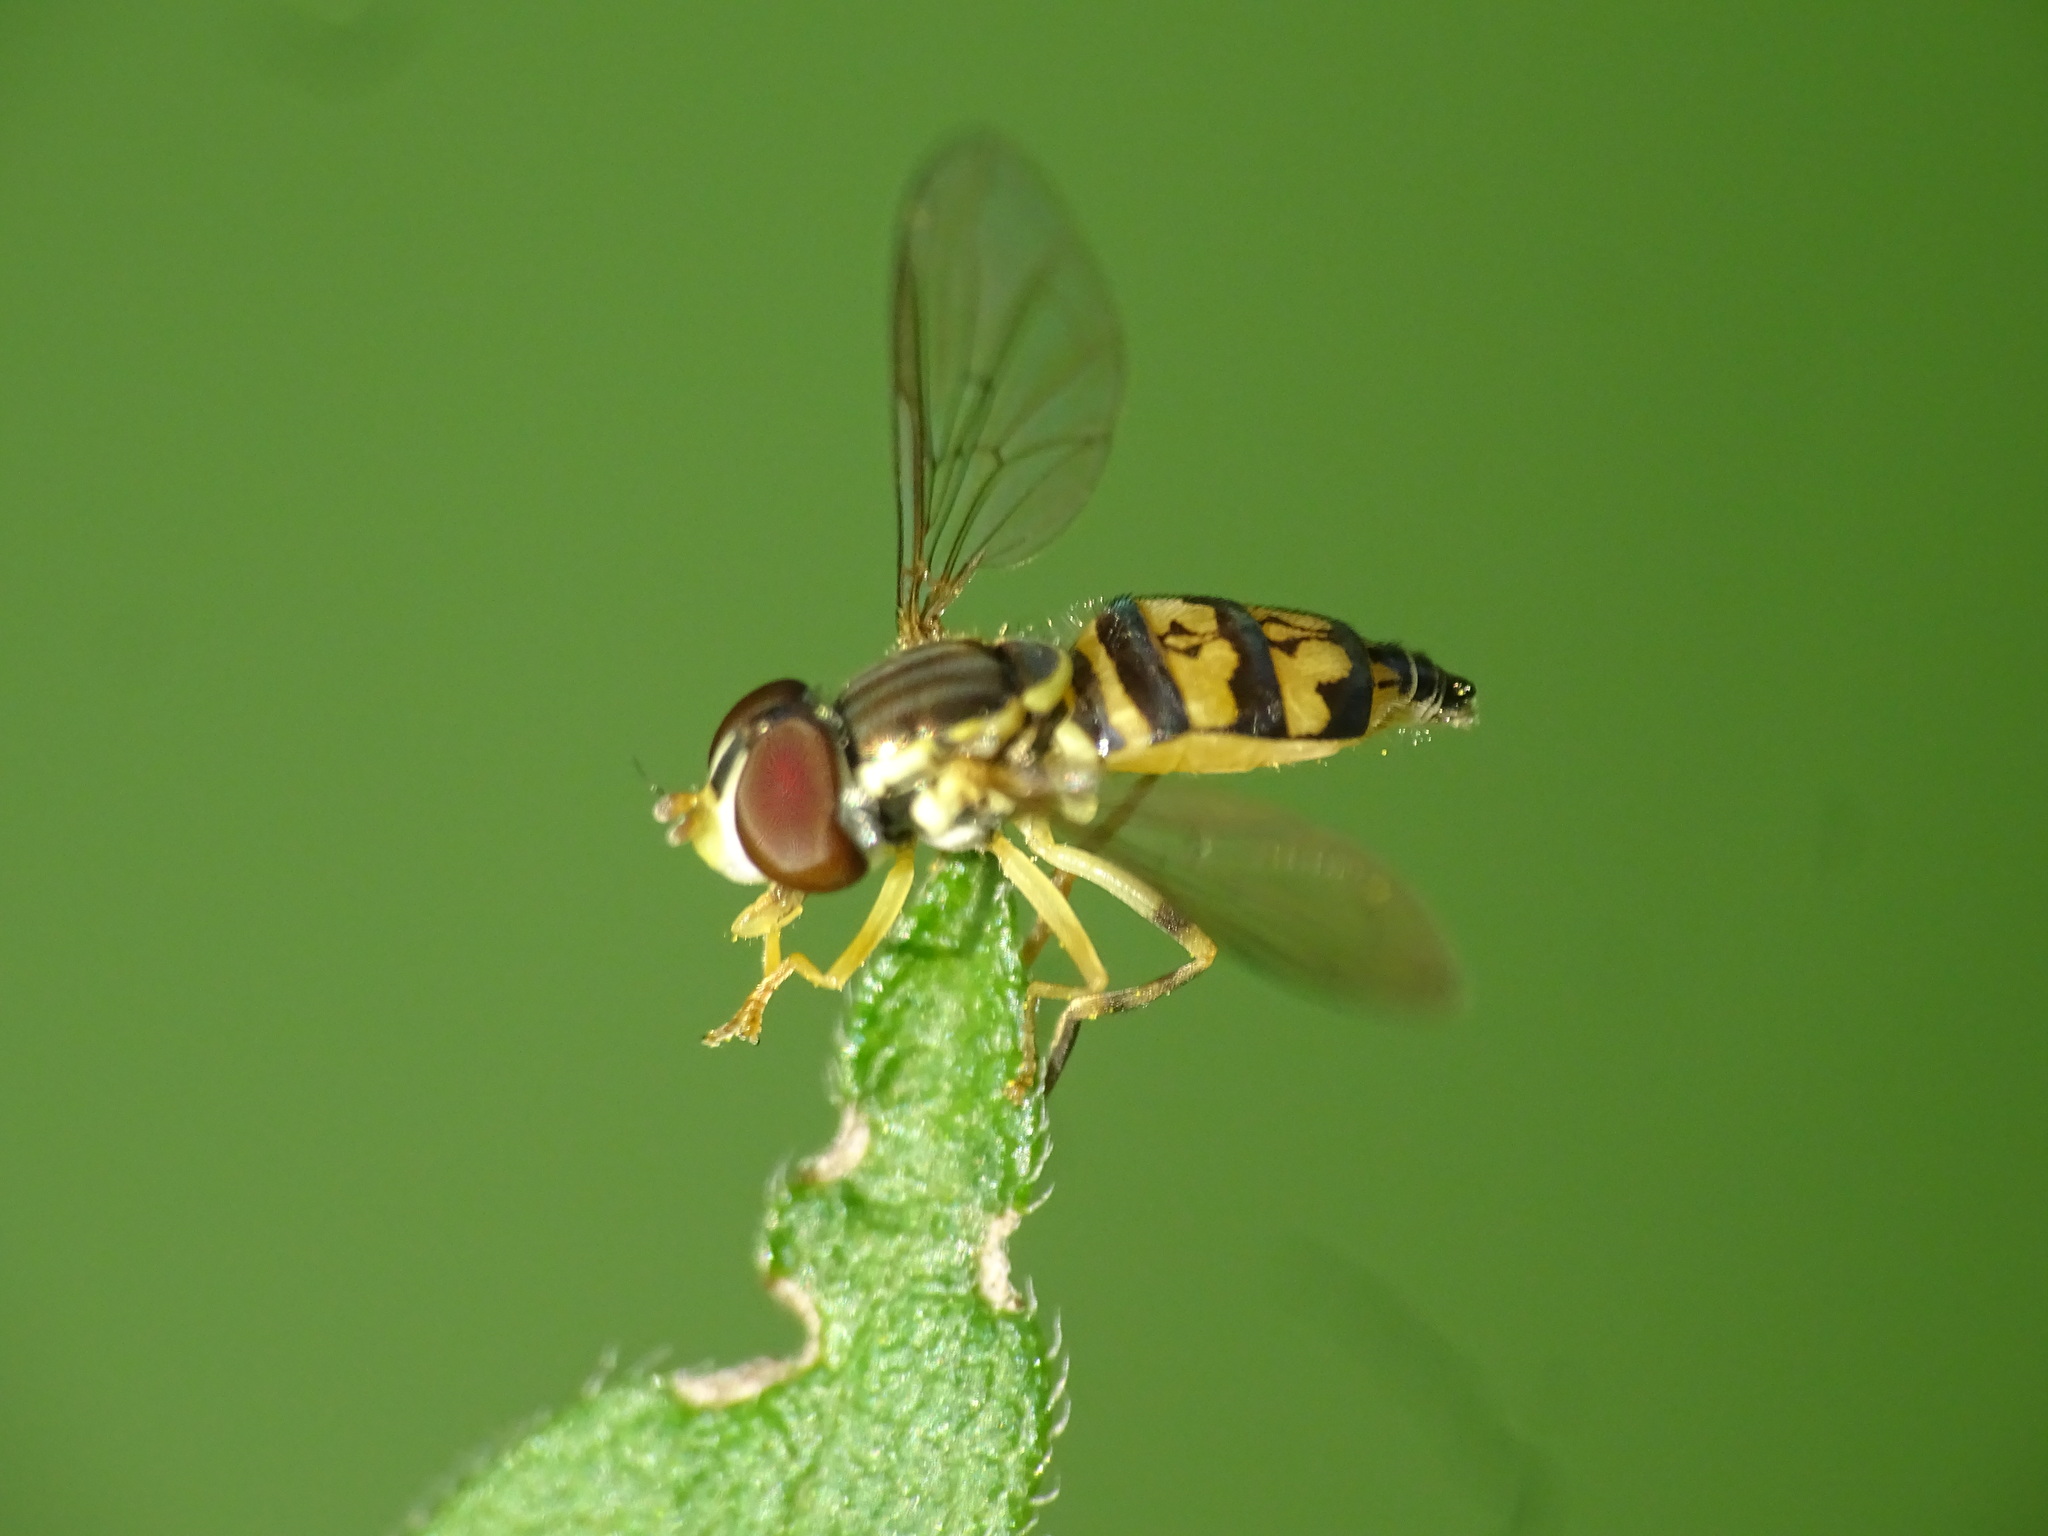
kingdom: Animalia
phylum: Arthropoda
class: Insecta
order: Diptera
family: Syrphidae
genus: Toxomerus
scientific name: Toxomerus geminatus
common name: Eastern calligrapher
